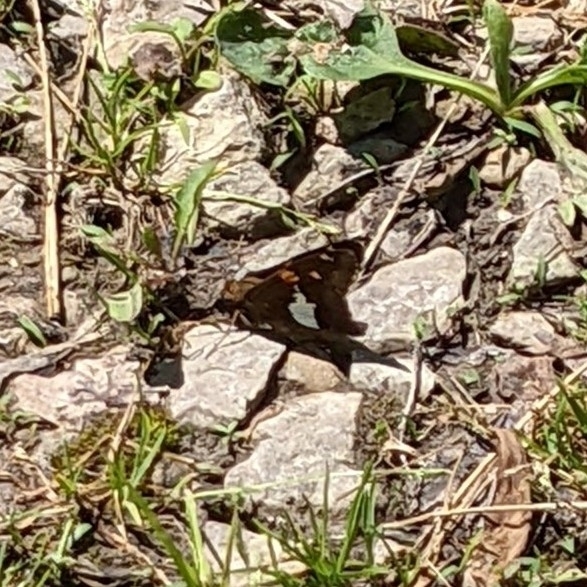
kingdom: Animalia
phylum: Arthropoda
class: Insecta
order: Lepidoptera
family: Hesperiidae
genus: Epargyreus
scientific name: Epargyreus clarus
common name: Silver-spotted skipper
